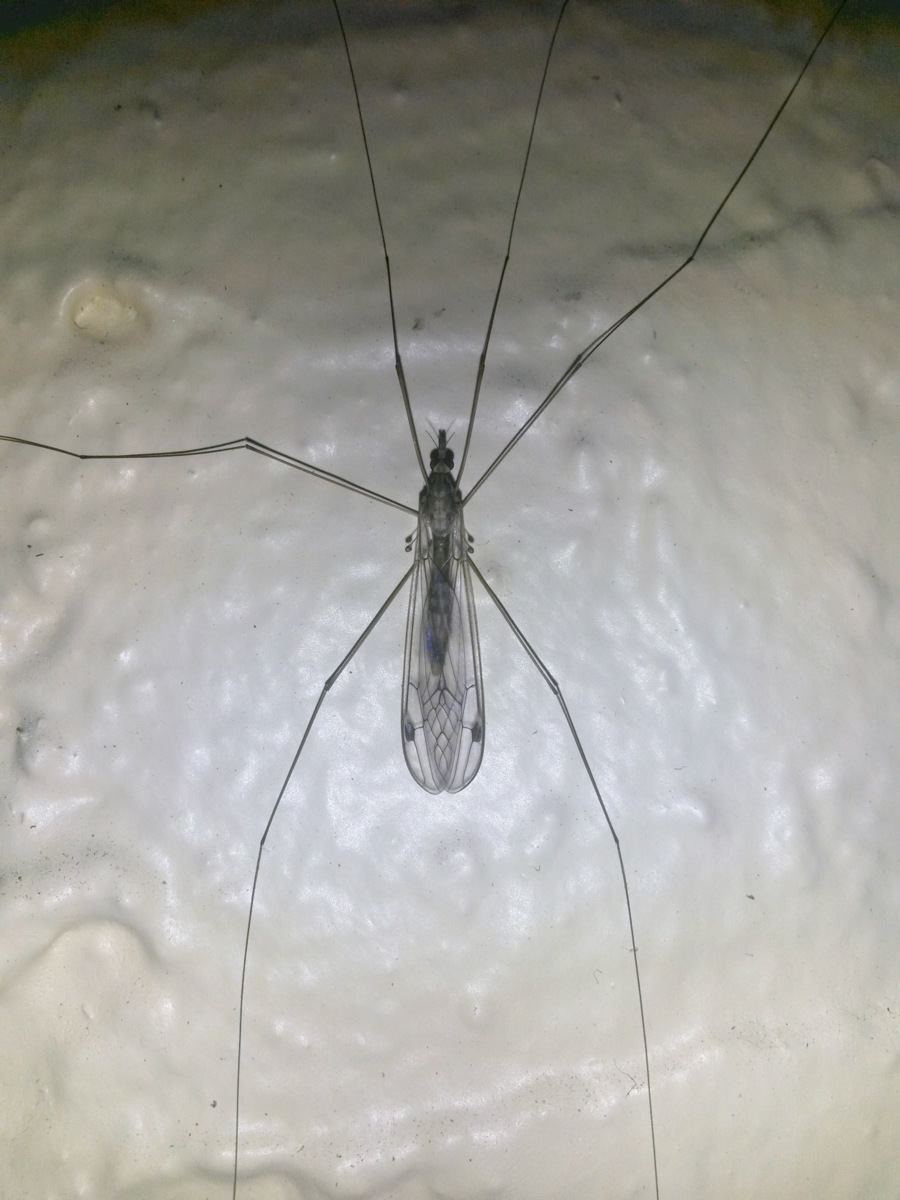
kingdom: Animalia
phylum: Arthropoda
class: Insecta
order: Diptera
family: Tipulidae
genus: Maekistocera
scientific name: Maekistocera longipennis
